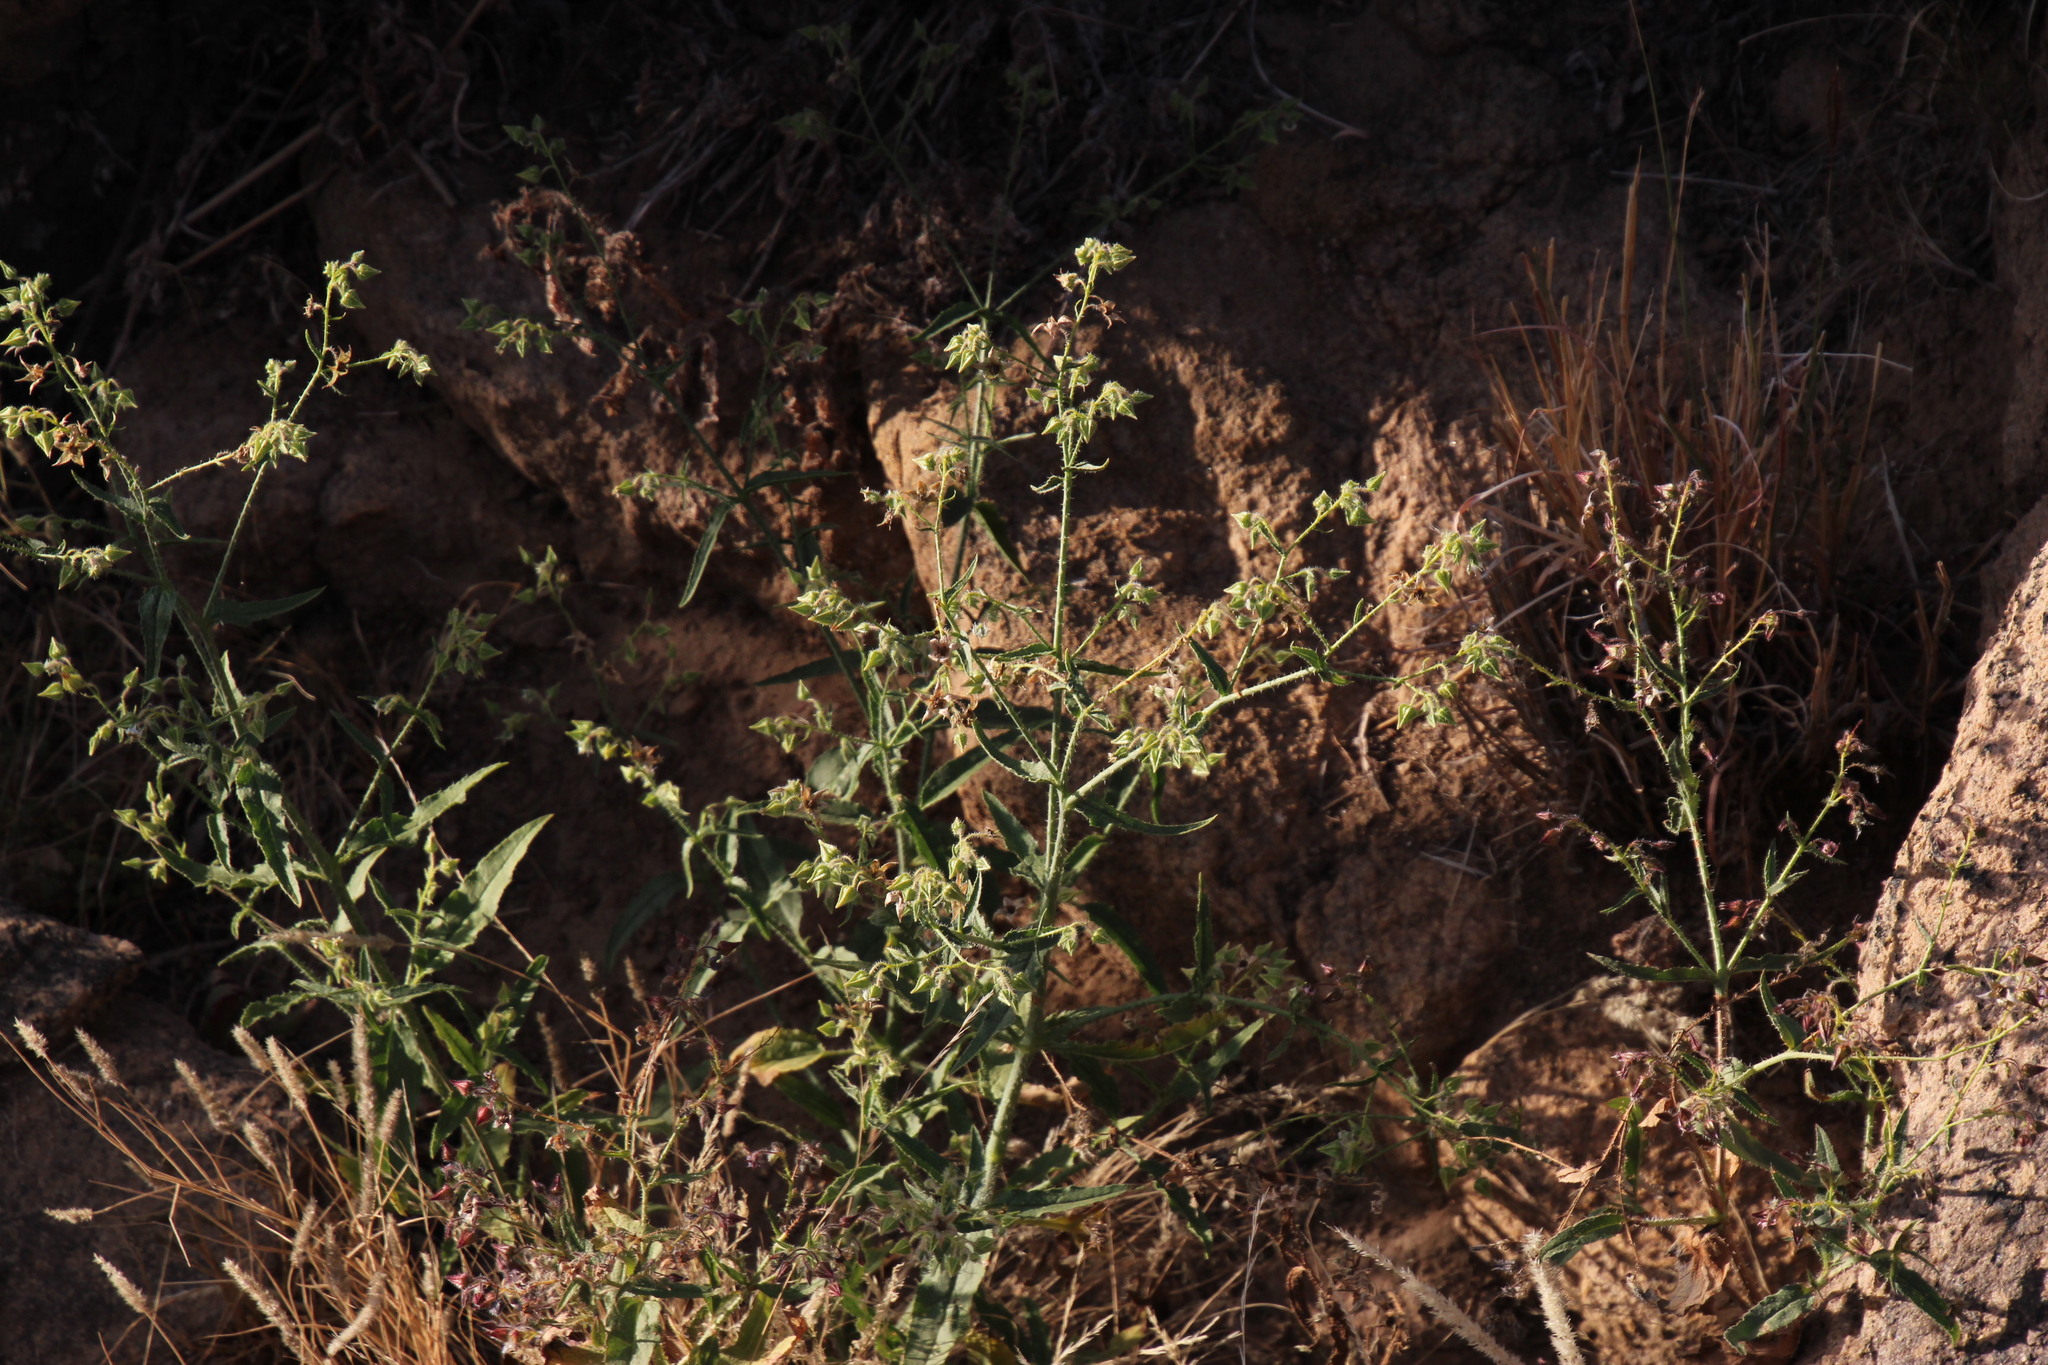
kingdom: Plantae
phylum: Tracheophyta
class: Magnoliopsida
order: Boraginales
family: Boraginaceae
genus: Trichodesma
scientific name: Trichodesma africanum
